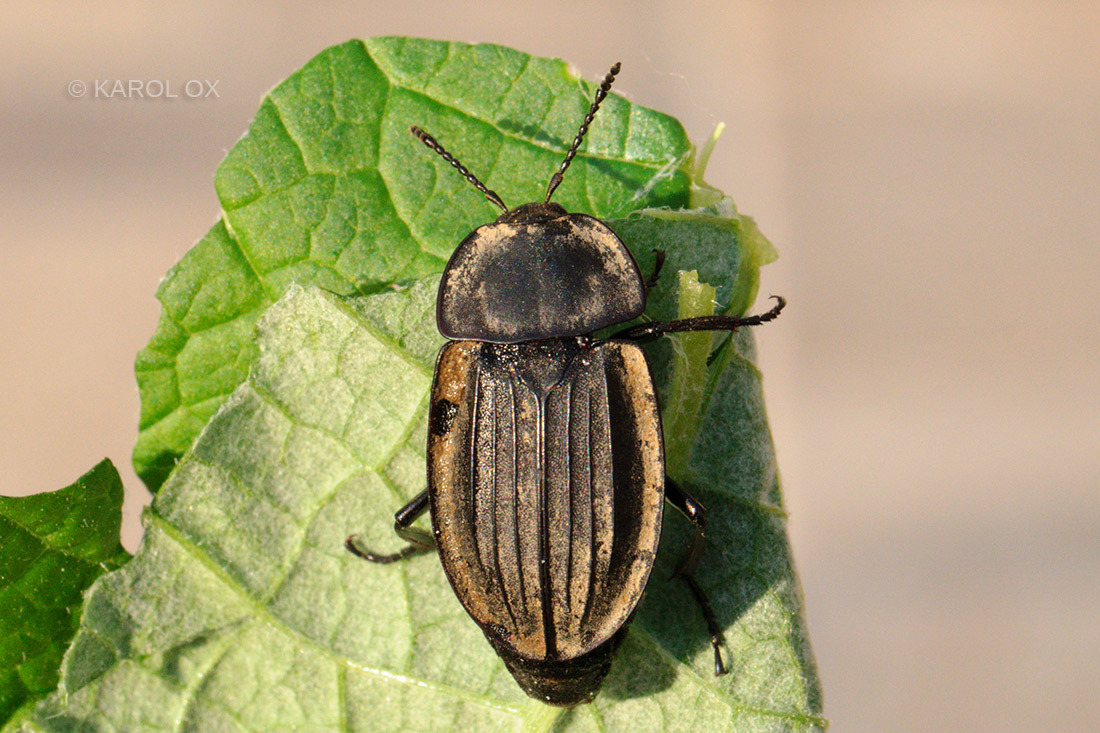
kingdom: Animalia
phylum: Arthropoda
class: Insecta
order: Coleoptera
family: Staphylinidae
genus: Silpha
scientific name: Silpha carinata
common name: Silphid beetle
